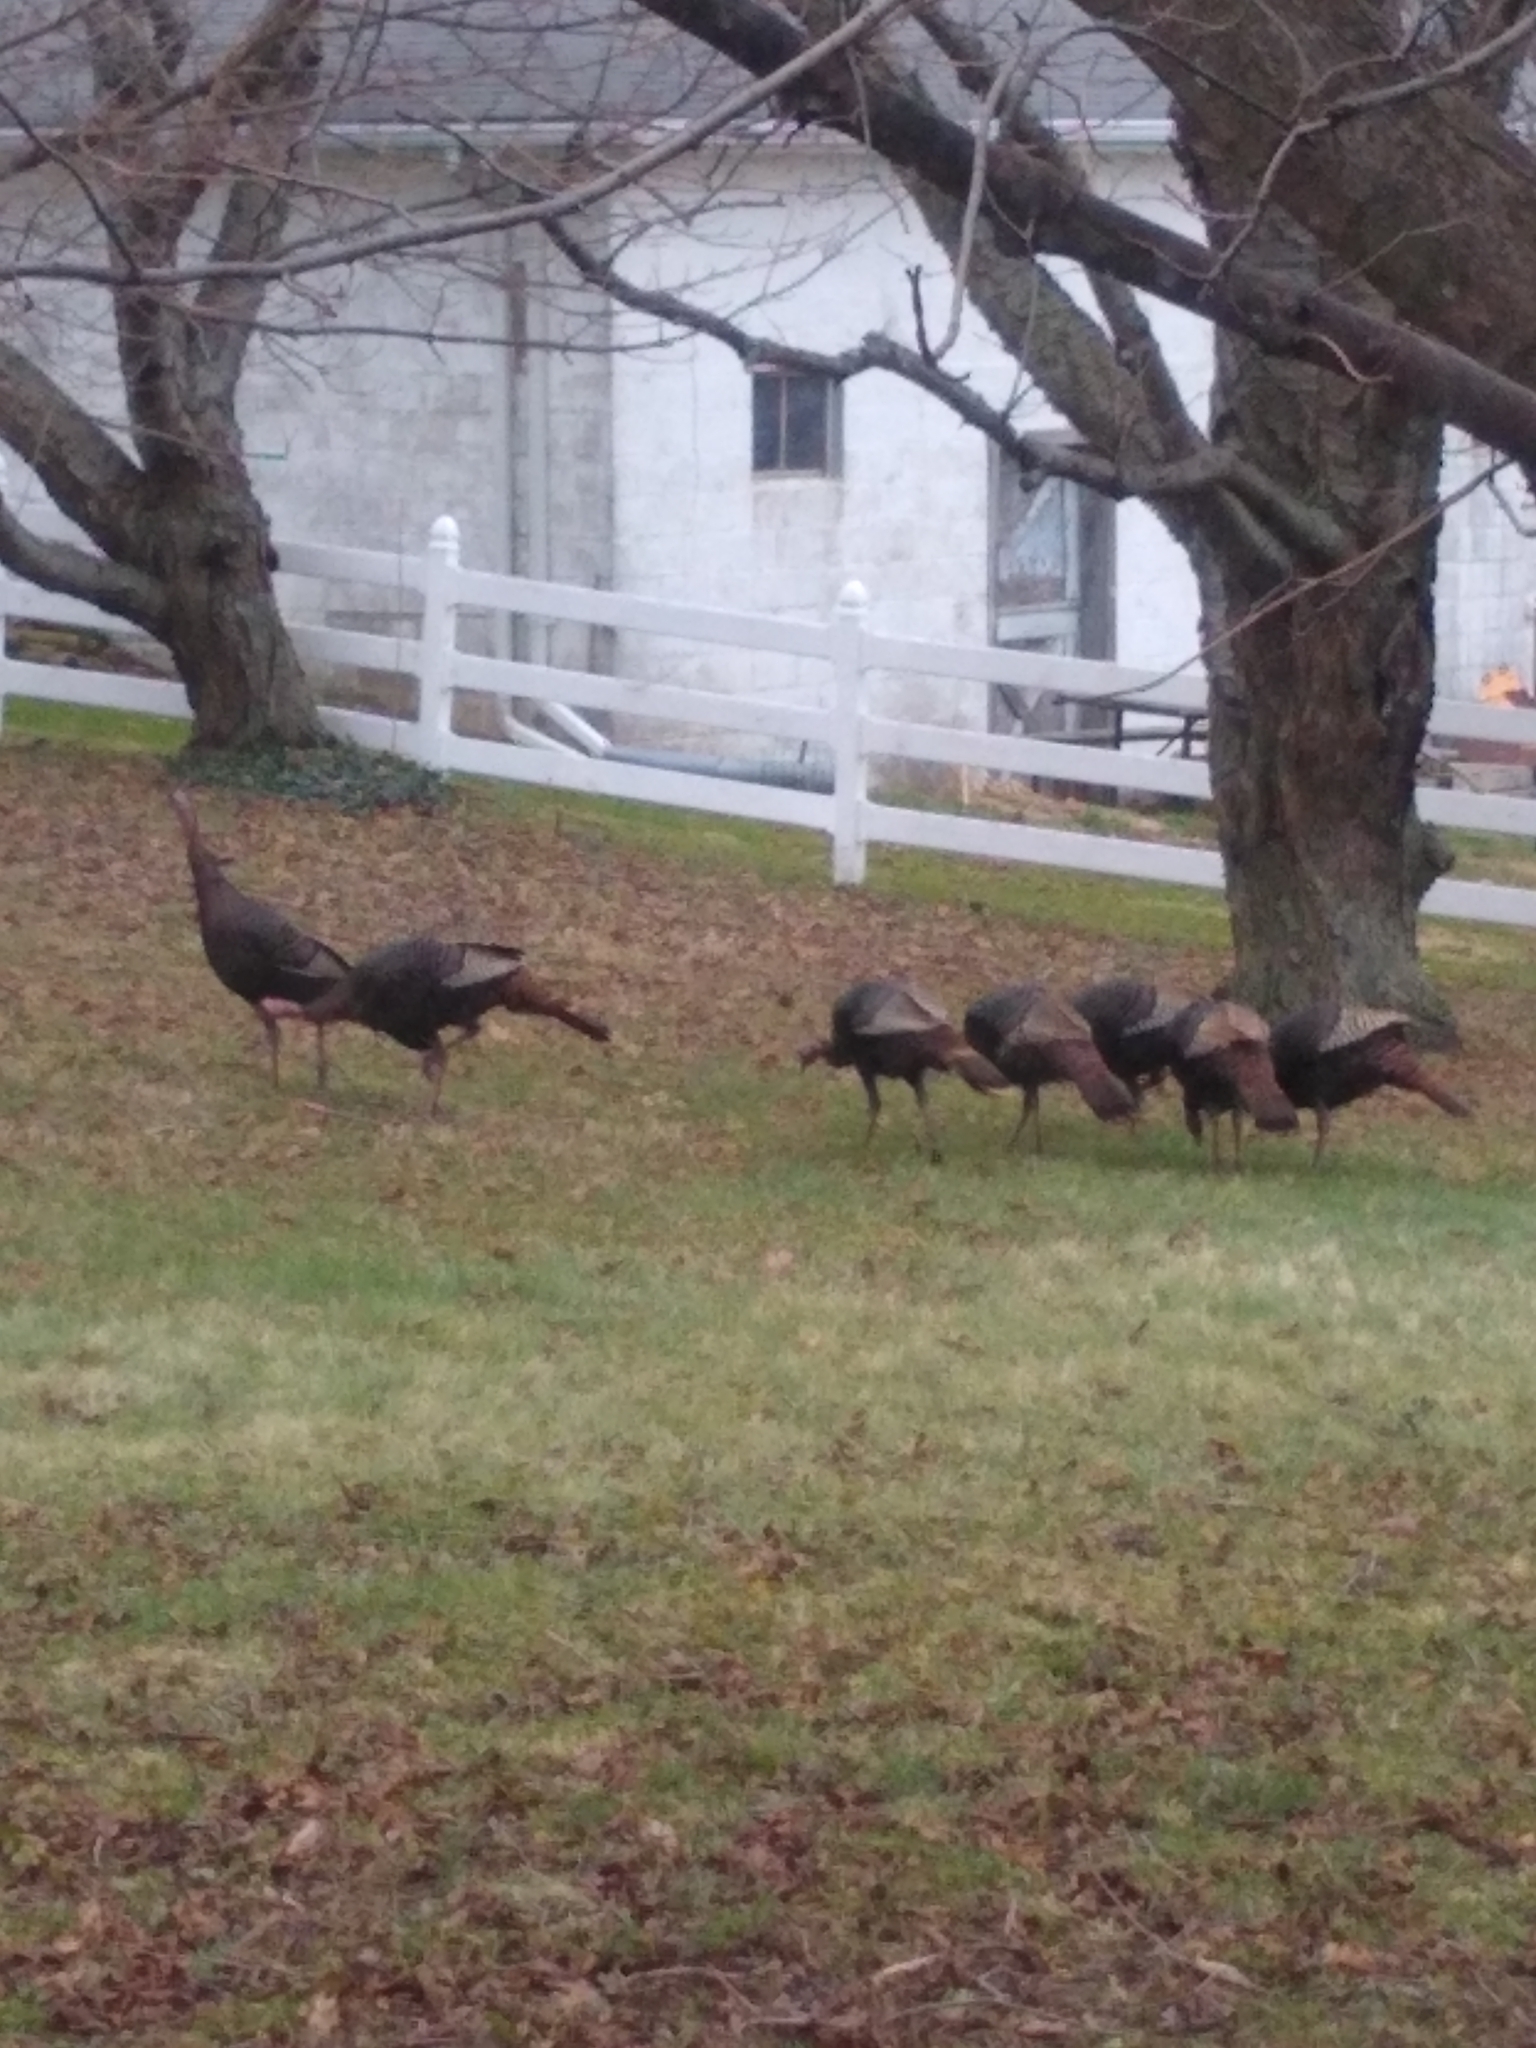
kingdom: Animalia
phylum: Chordata
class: Aves
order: Galliformes
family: Phasianidae
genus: Meleagris
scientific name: Meleagris gallopavo
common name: Wild turkey
